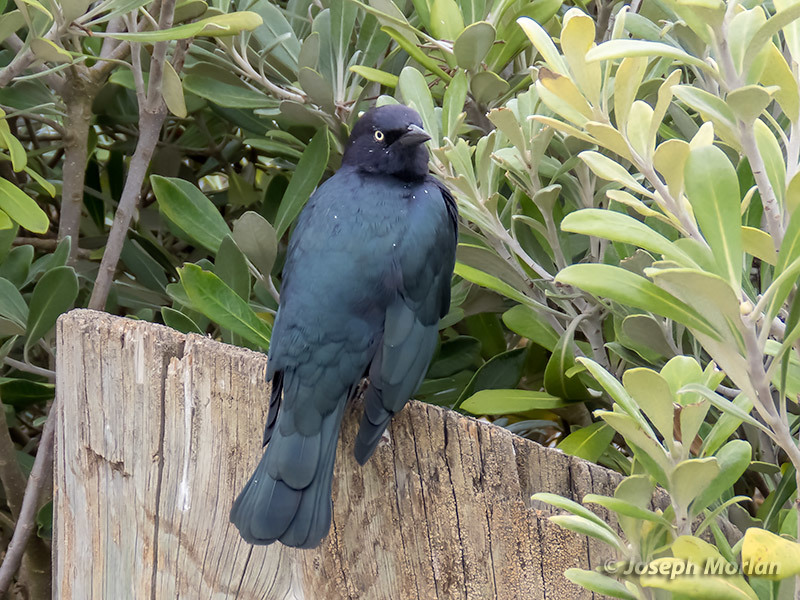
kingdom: Animalia
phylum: Chordata
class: Aves
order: Passeriformes
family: Icteridae
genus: Euphagus
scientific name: Euphagus cyanocephalus
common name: Brewer's blackbird
